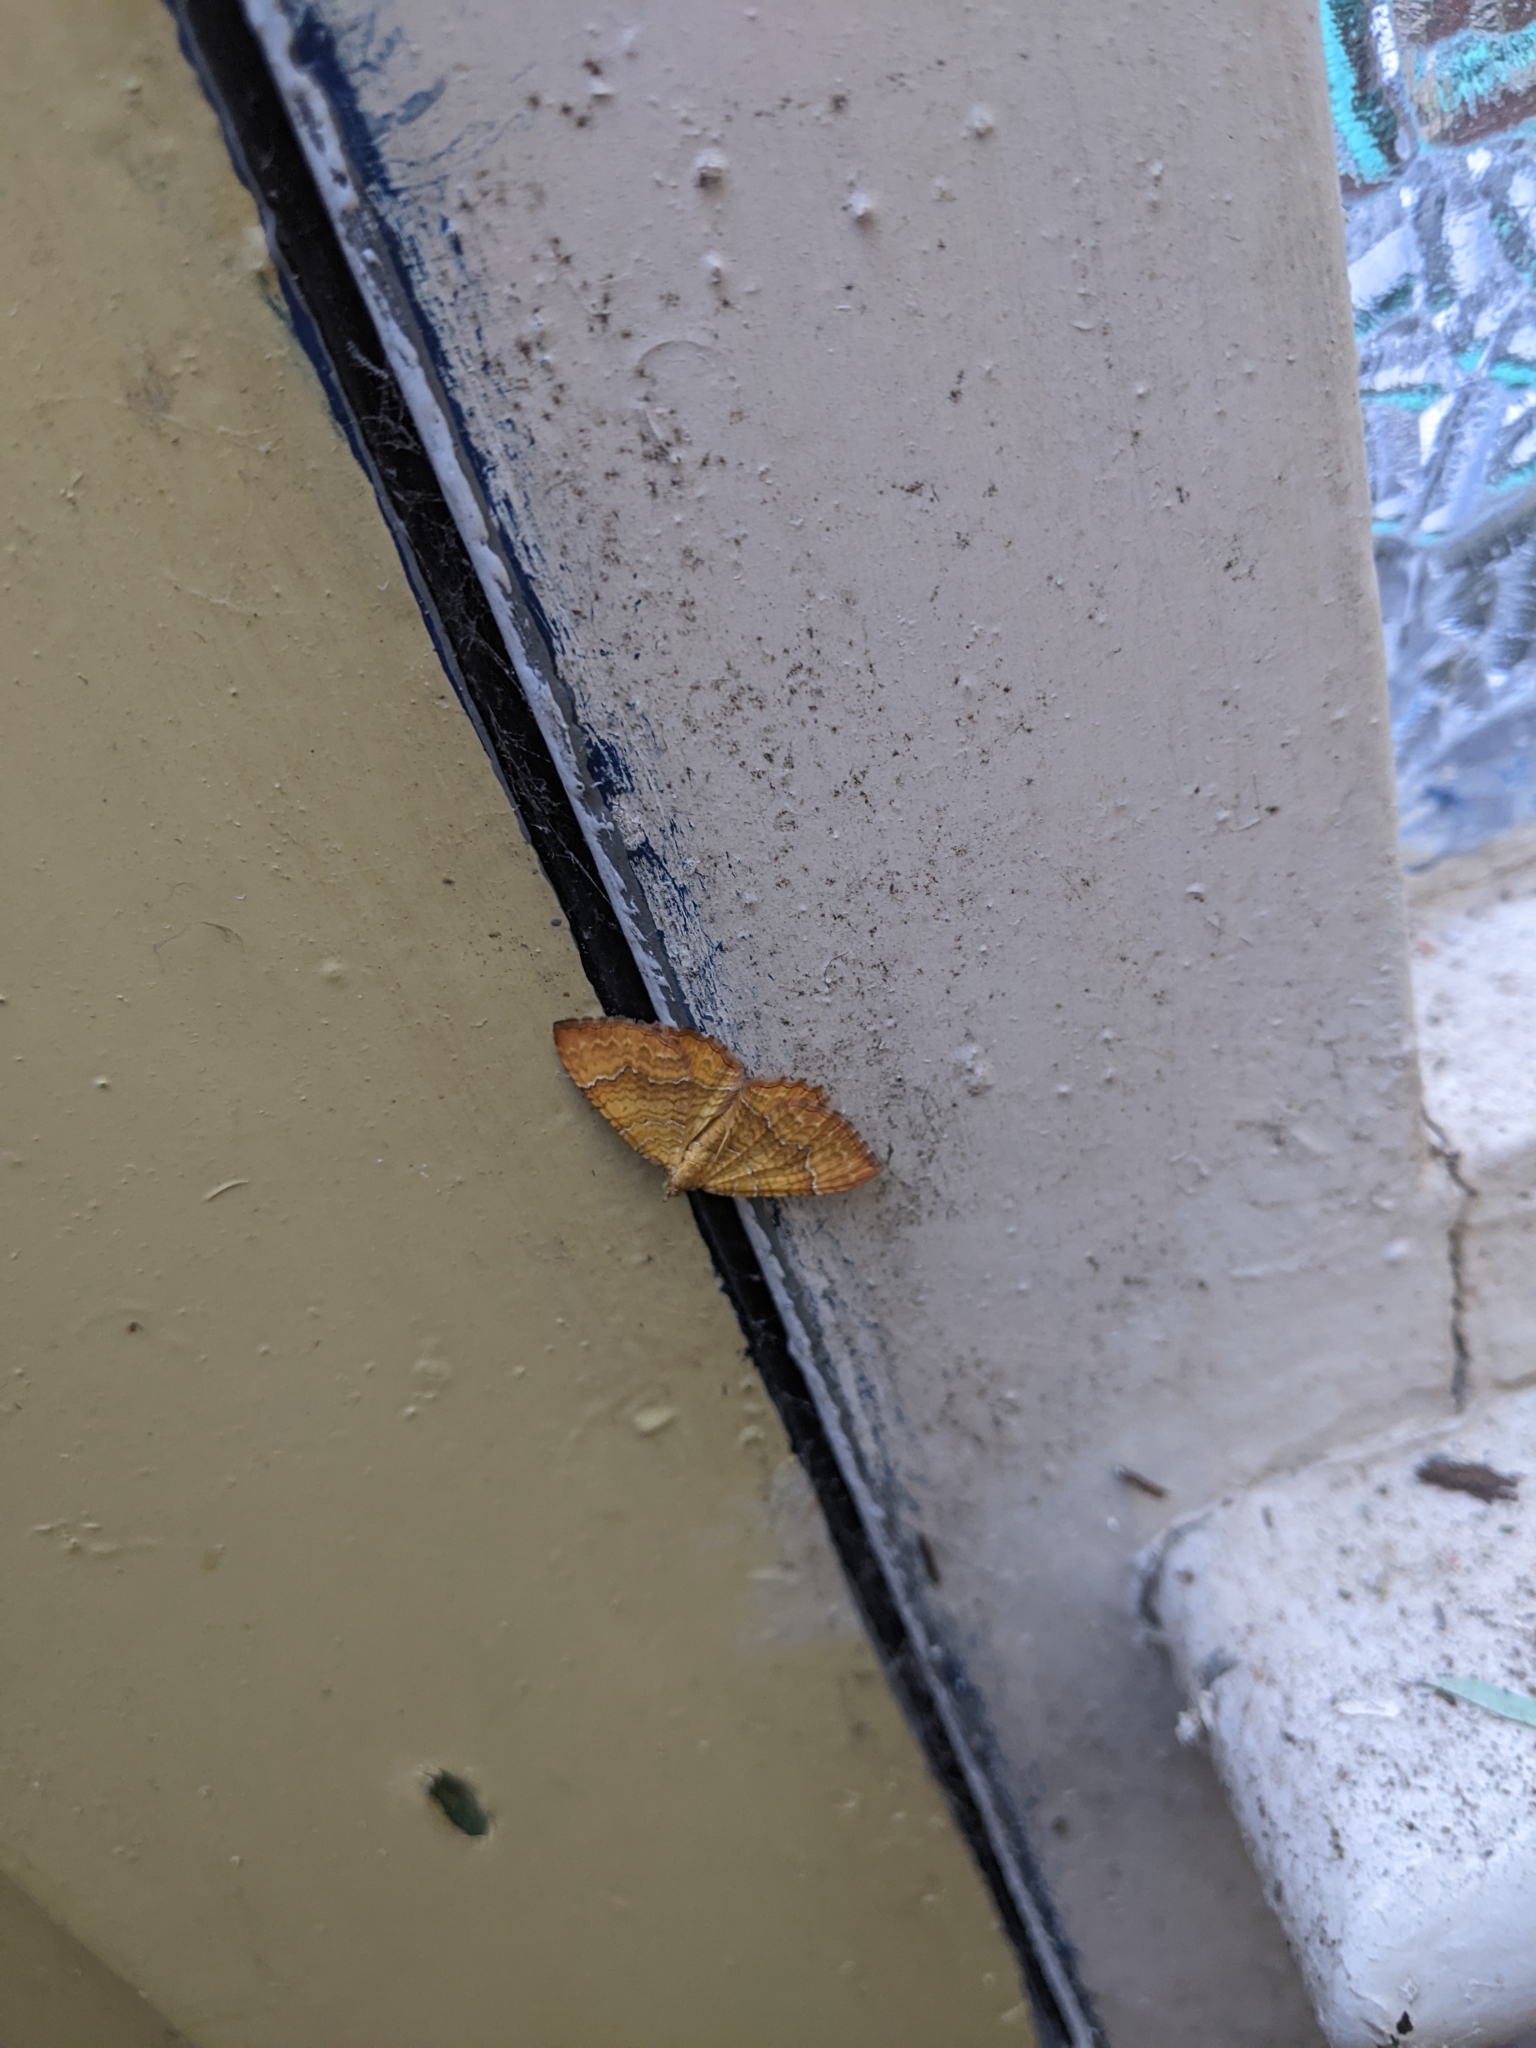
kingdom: Animalia
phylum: Arthropoda
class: Insecta
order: Lepidoptera
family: Geometridae
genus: Camptogramma
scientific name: Camptogramma bilineata
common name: Yellow shell
